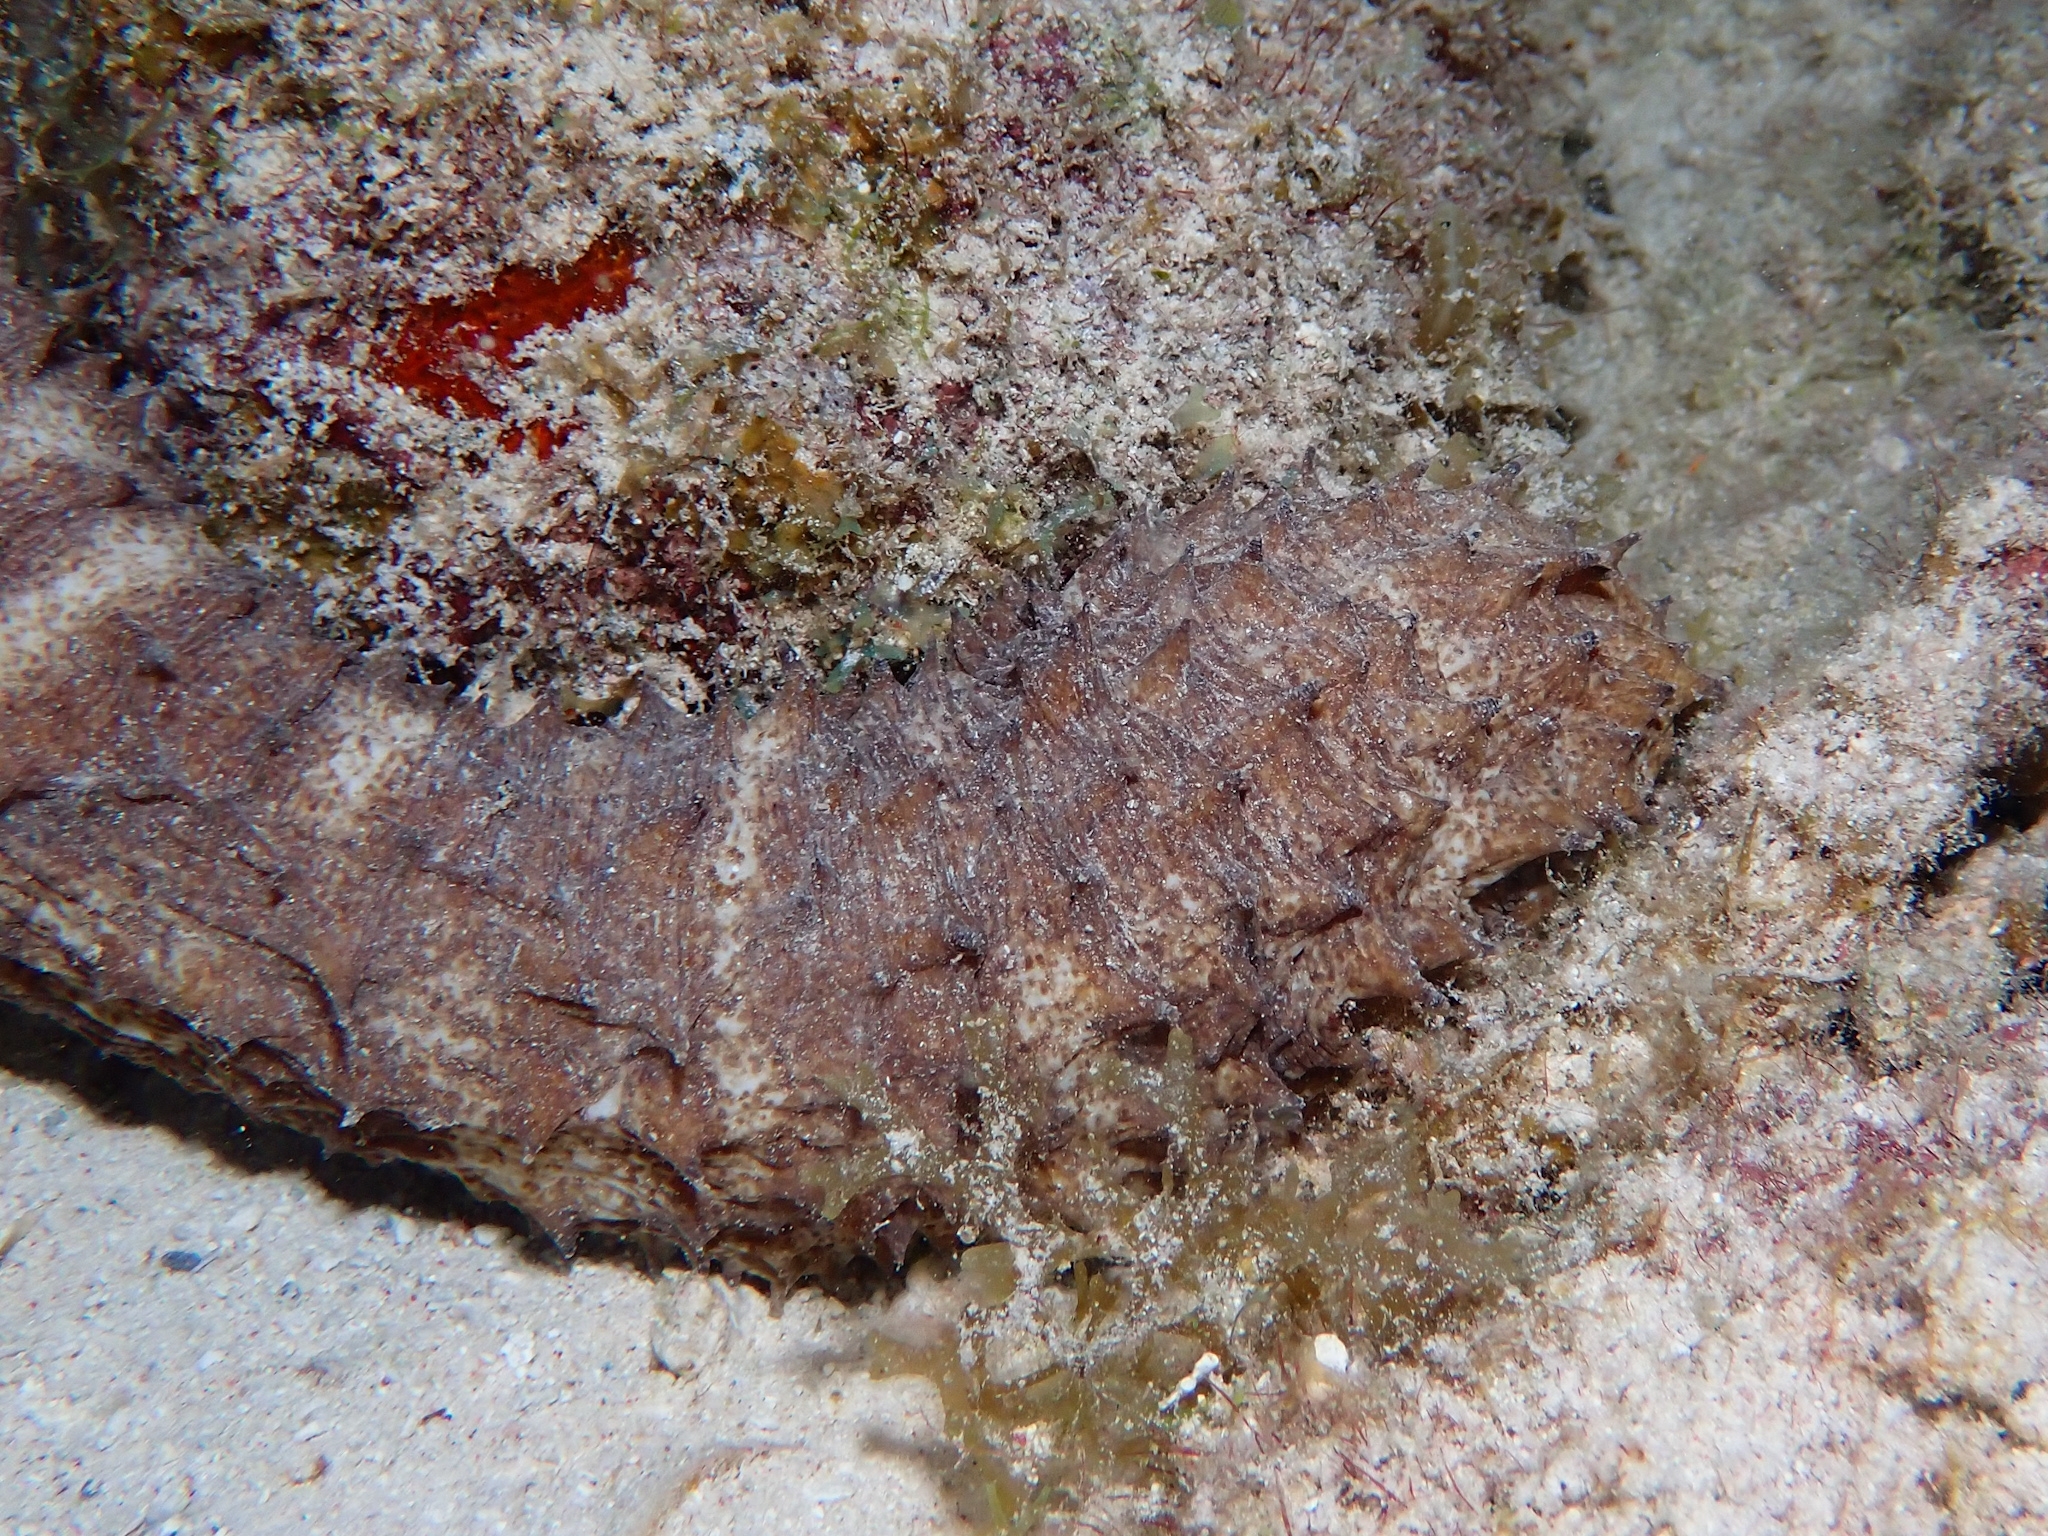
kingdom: Animalia
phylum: Echinodermata
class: Holothuroidea
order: Holothuriida
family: Holothuriidae
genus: Holothuria
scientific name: Holothuria thomasi
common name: Tiger tail sea cocumber
